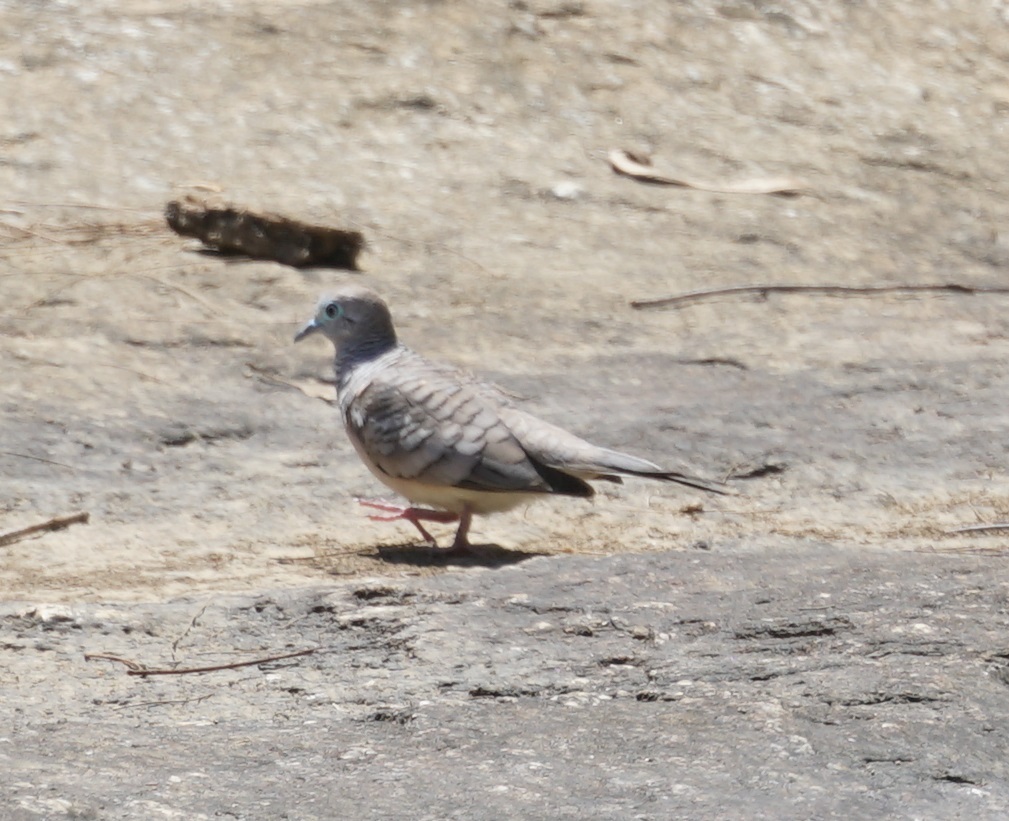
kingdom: Animalia
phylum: Chordata
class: Aves
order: Columbiformes
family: Columbidae
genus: Geopelia
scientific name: Geopelia placida
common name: Peaceful dove
